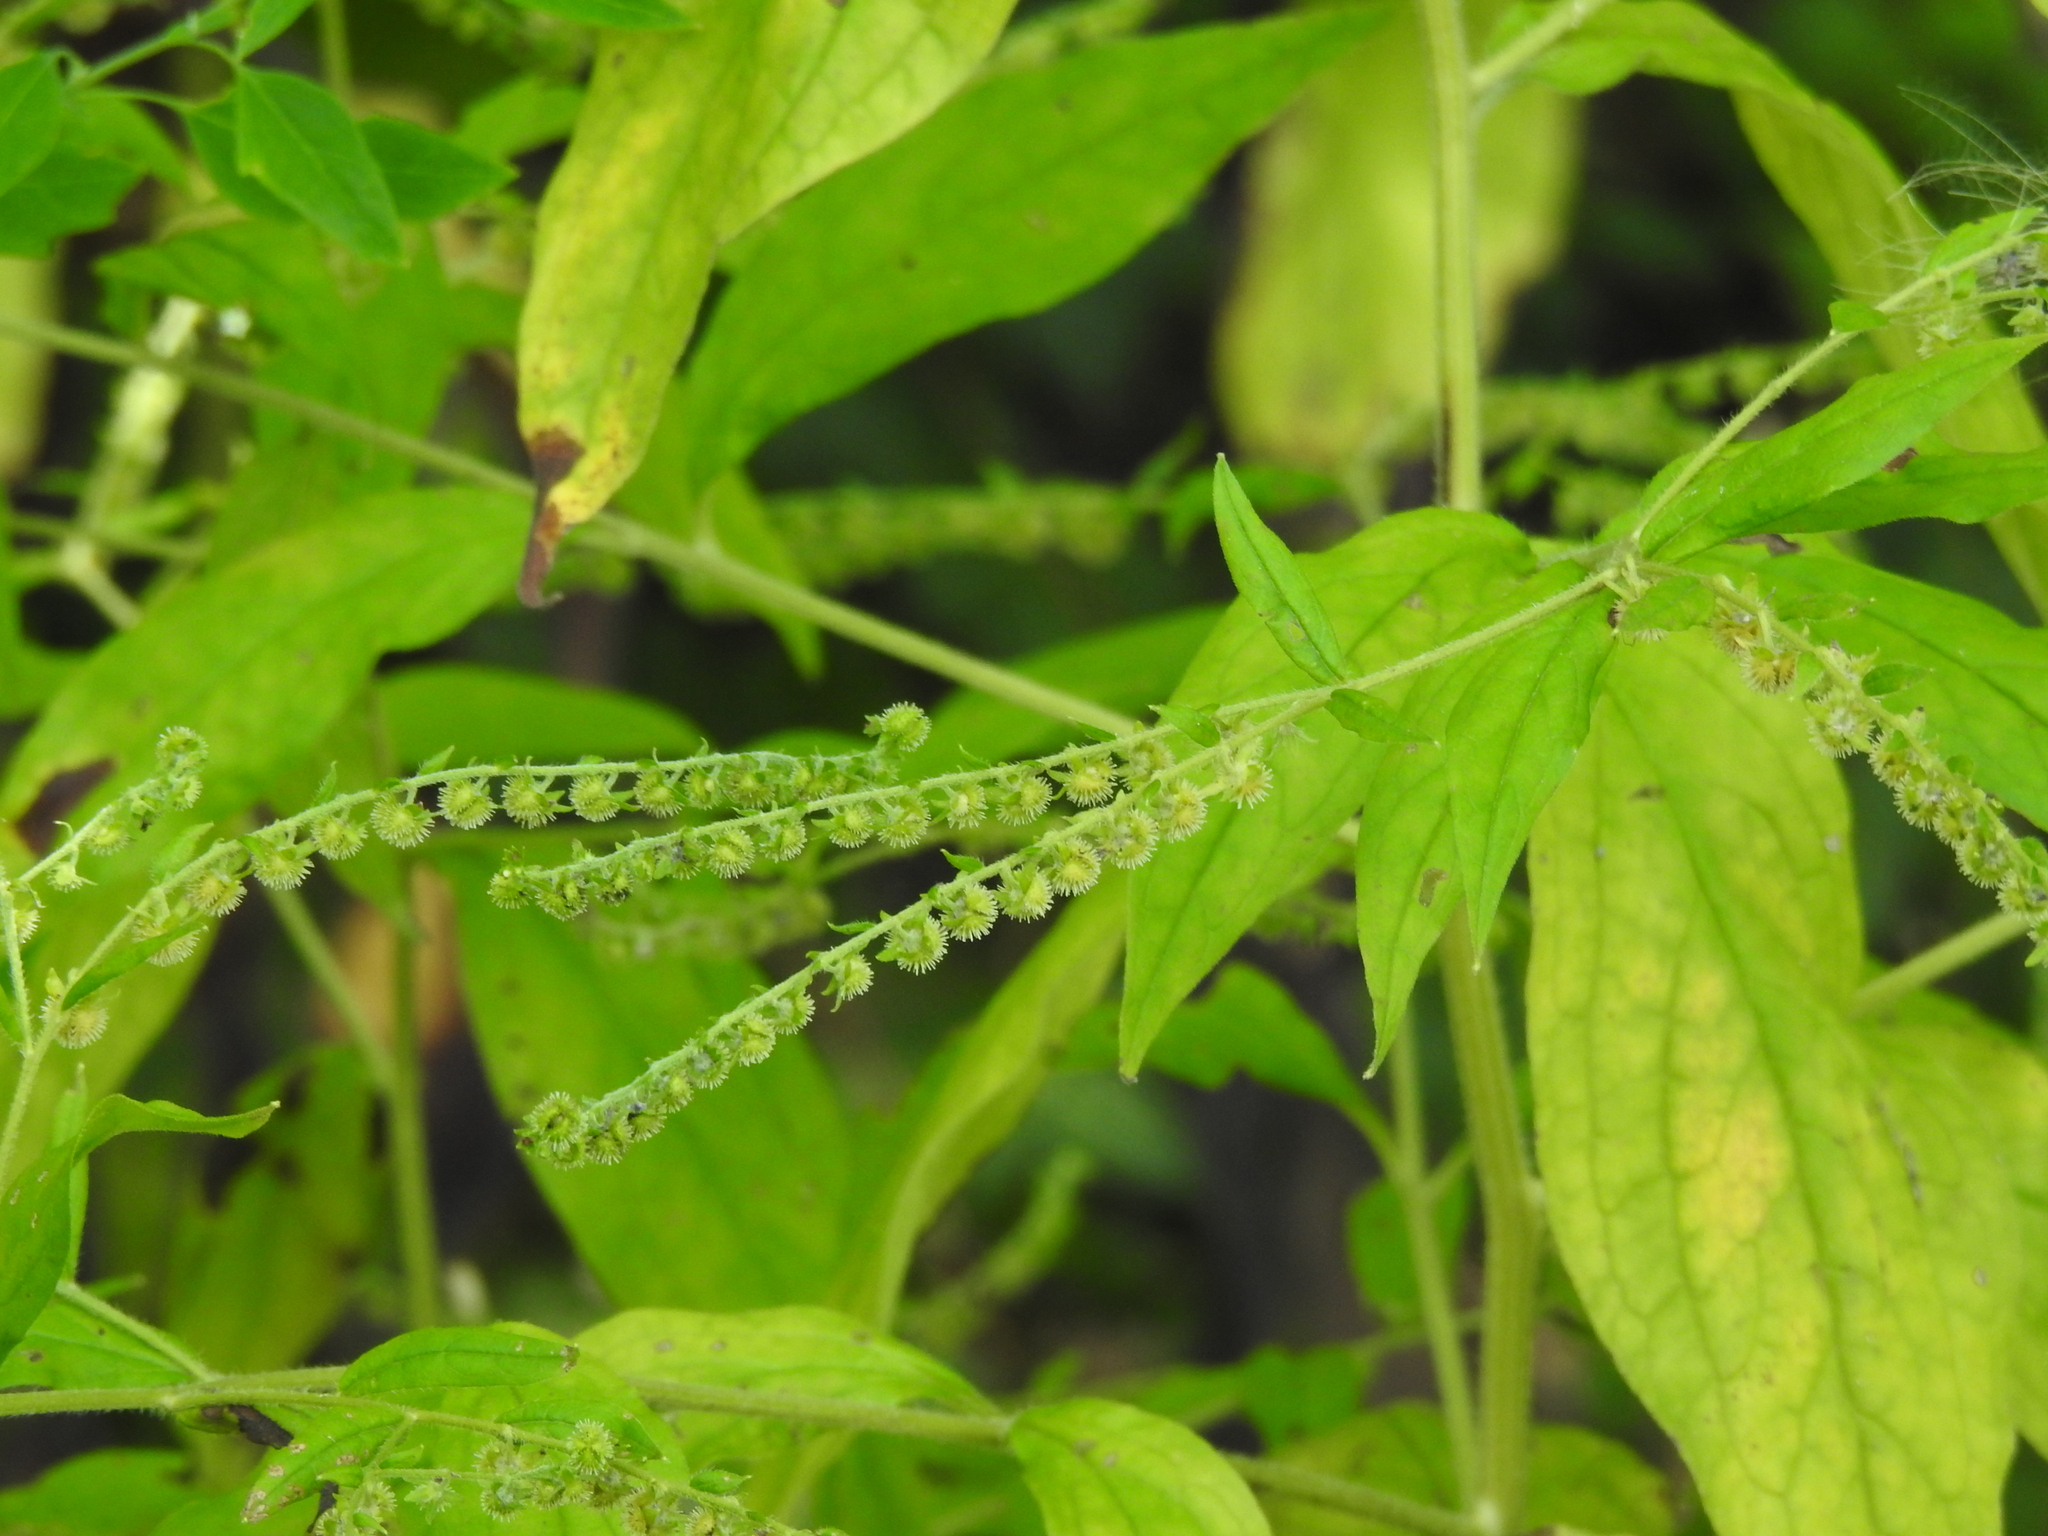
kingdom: Plantae
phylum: Tracheophyta
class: Magnoliopsida
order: Boraginales
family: Boraginaceae
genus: Hackelia
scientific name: Hackelia virginiana
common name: Beggar's-lice
